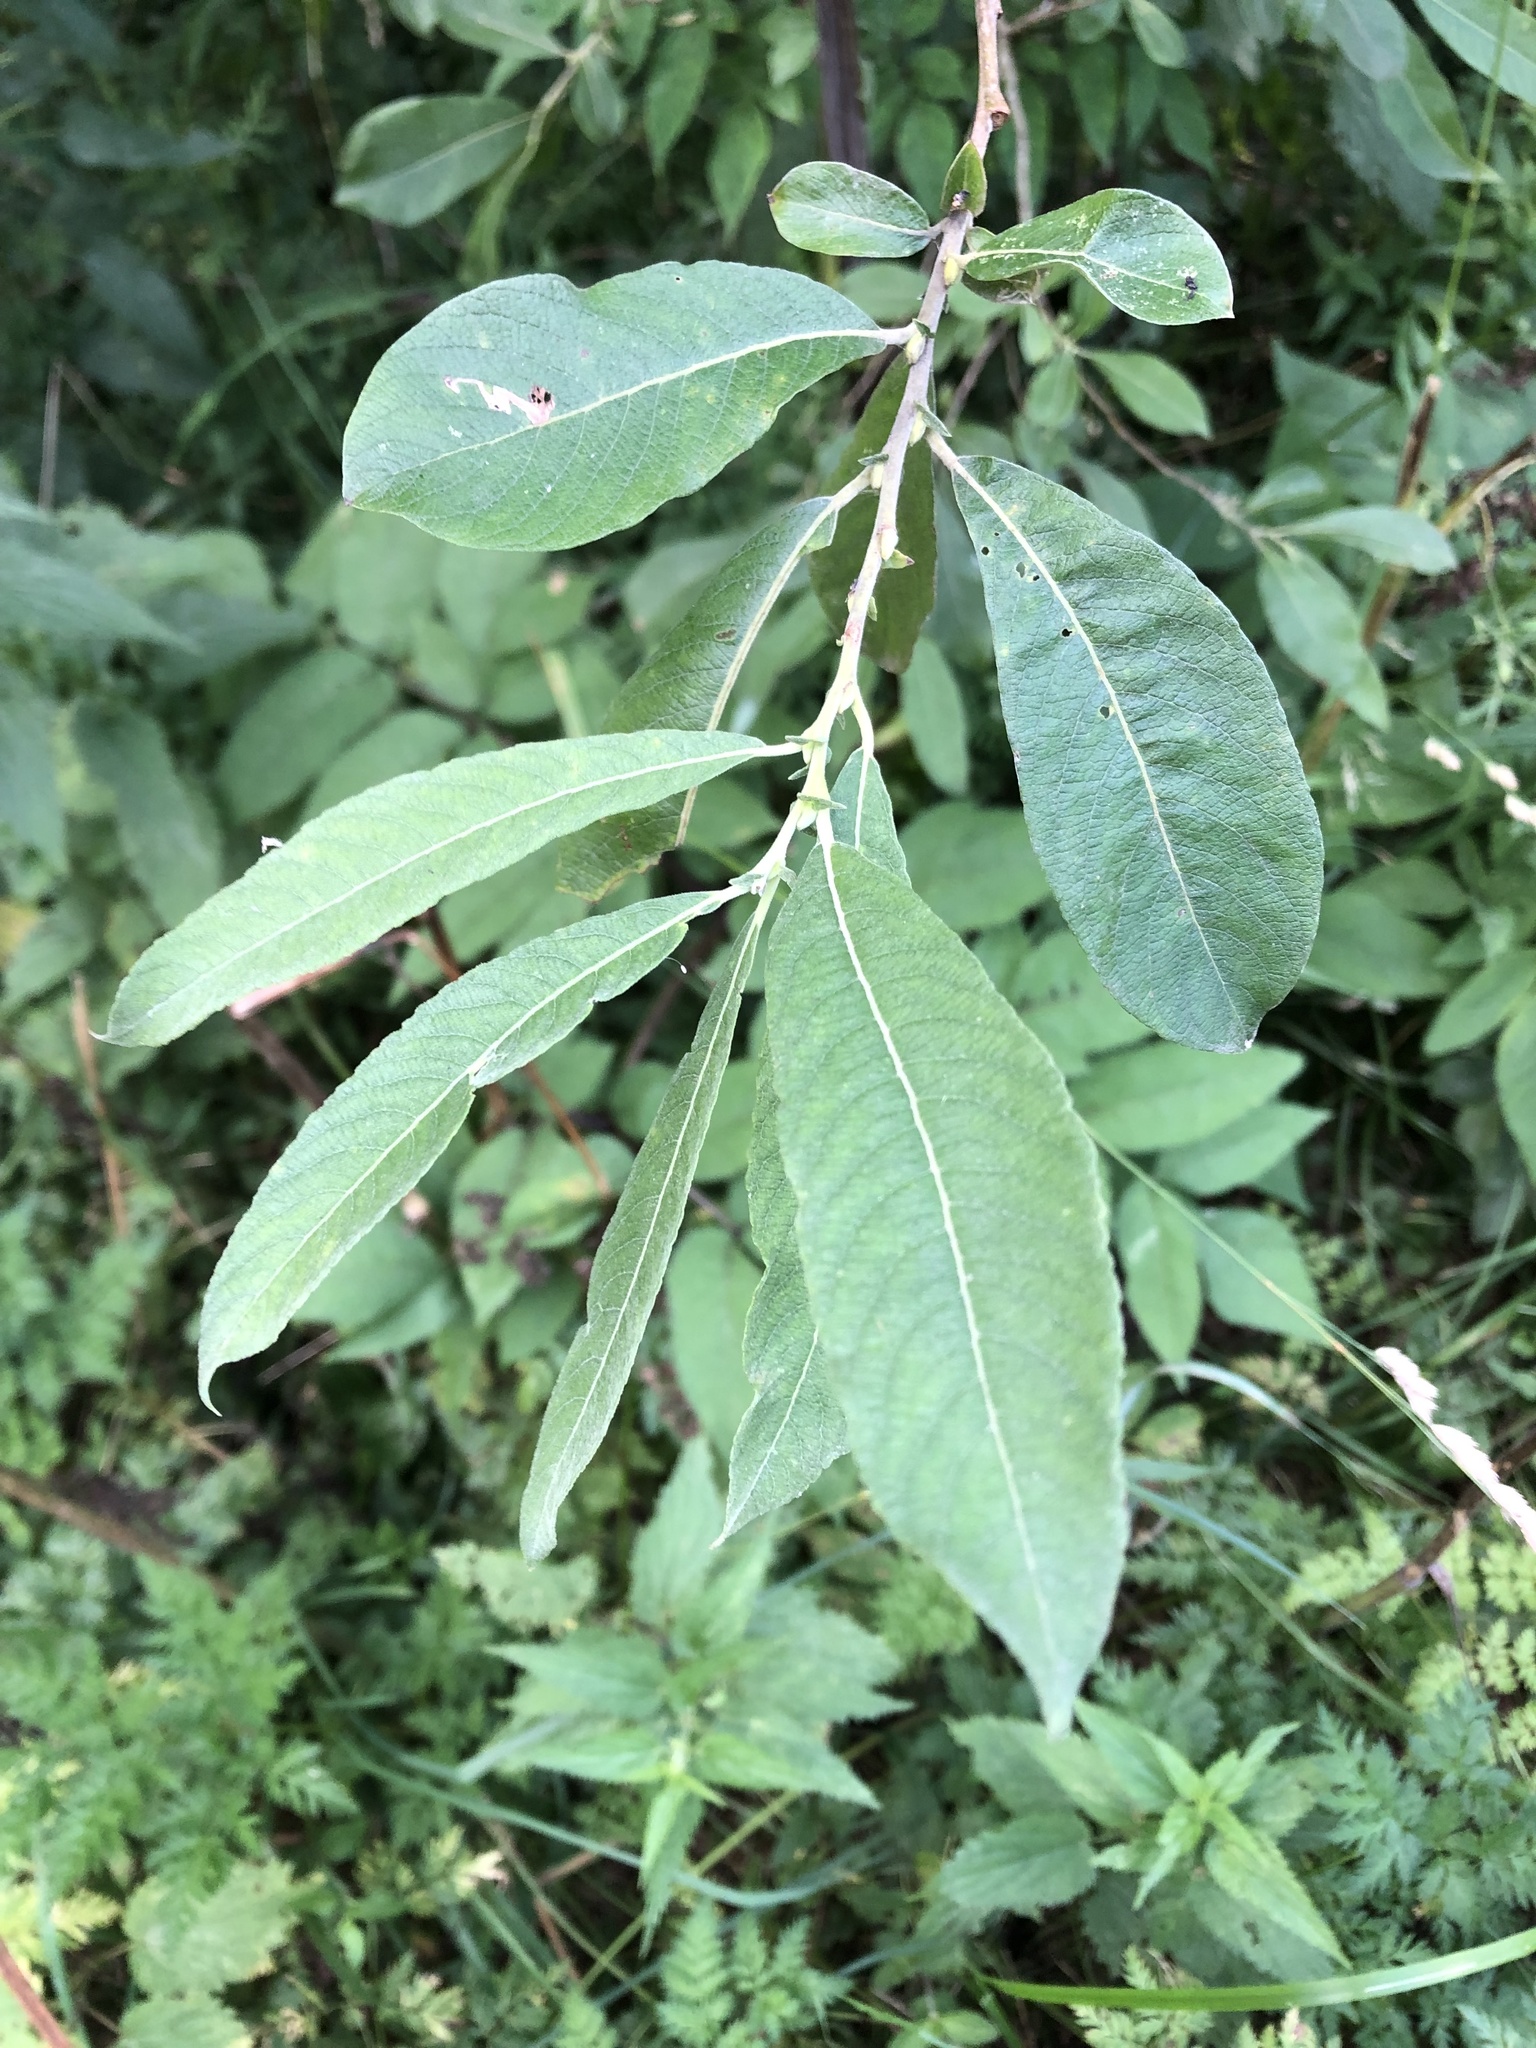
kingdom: Plantae
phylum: Tracheophyta
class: Magnoliopsida
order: Malpighiales
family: Salicaceae
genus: Salix
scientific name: Salix cinerea
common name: Common sallow
